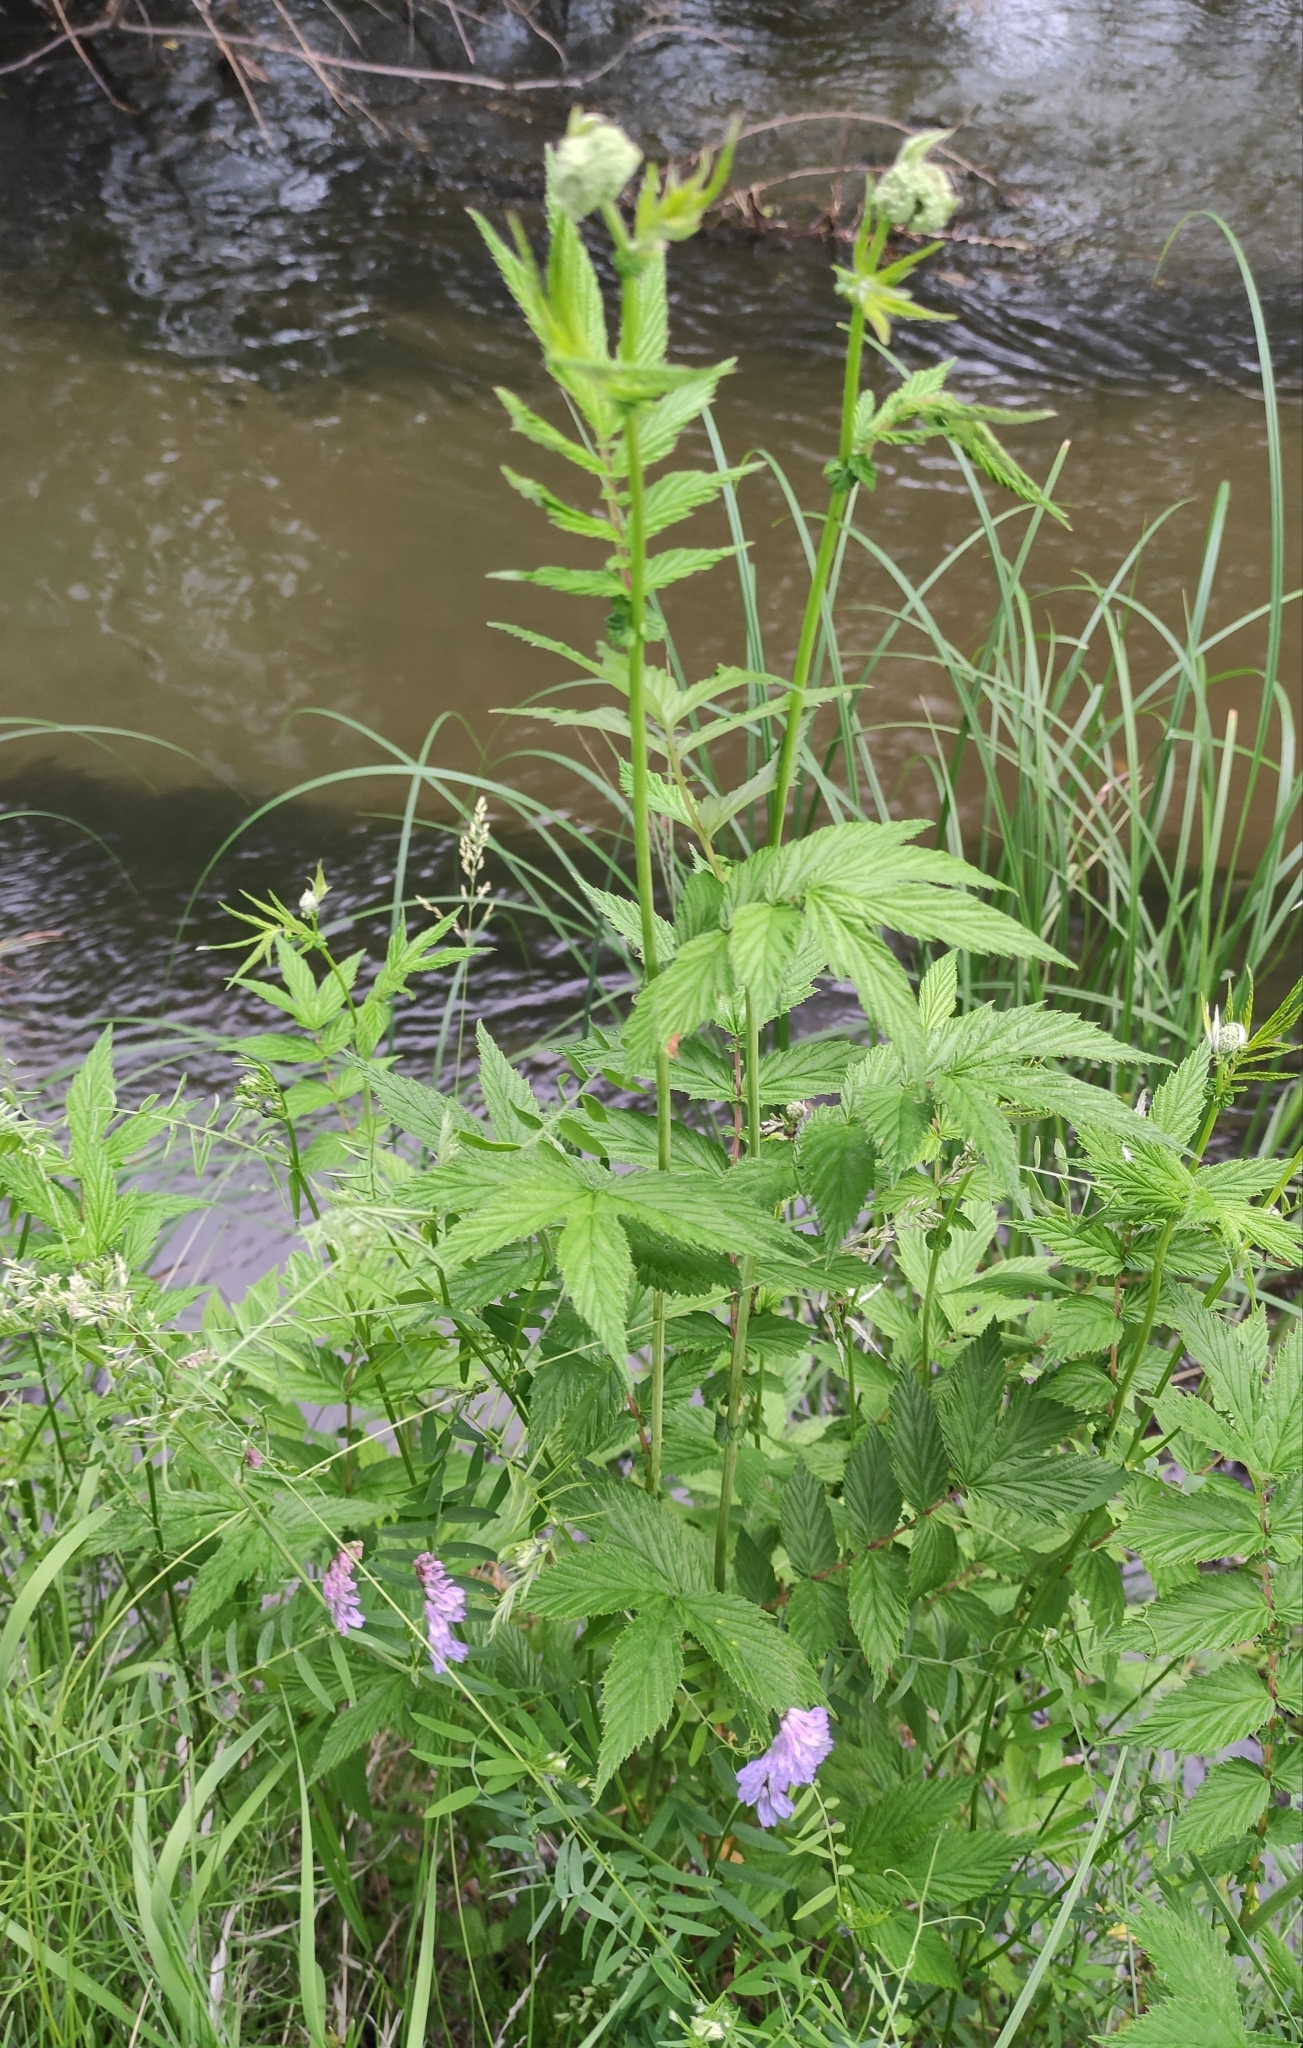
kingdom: Plantae
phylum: Tracheophyta
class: Magnoliopsida
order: Rosales
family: Rosaceae
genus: Filipendula
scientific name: Filipendula ulmaria
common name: Meadowsweet
